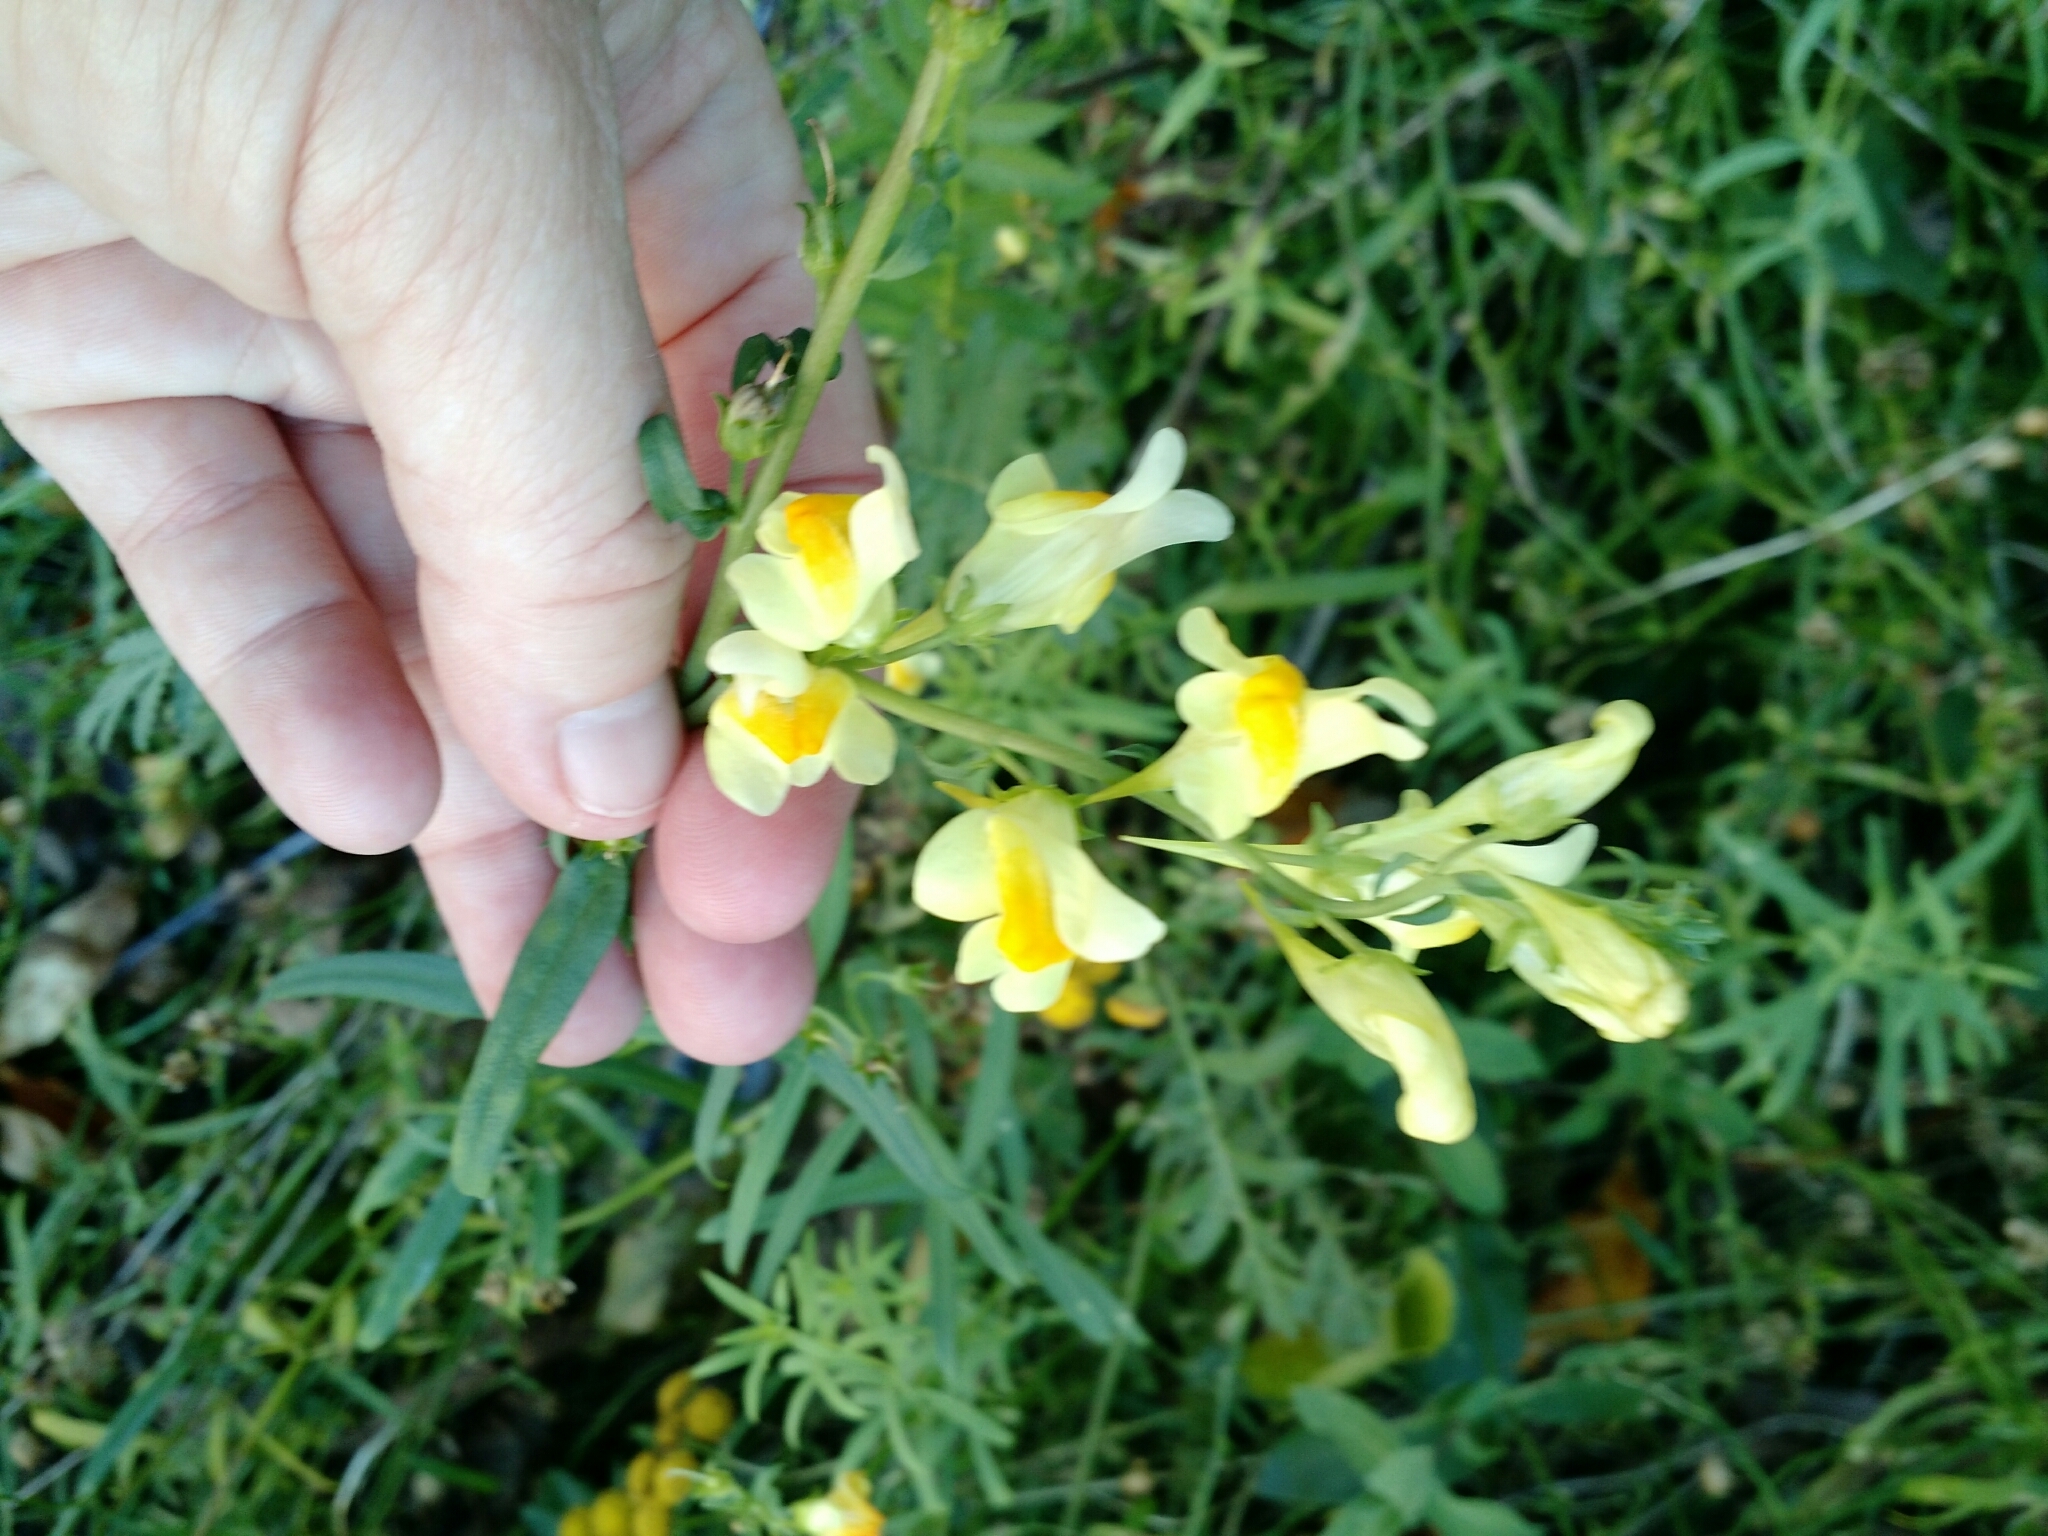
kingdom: Plantae
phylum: Tracheophyta
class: Magnoliopsida
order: Lamiales
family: Plantaginaceae
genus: Linaria
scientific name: Linaria vulgaris
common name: Butter and eggs
